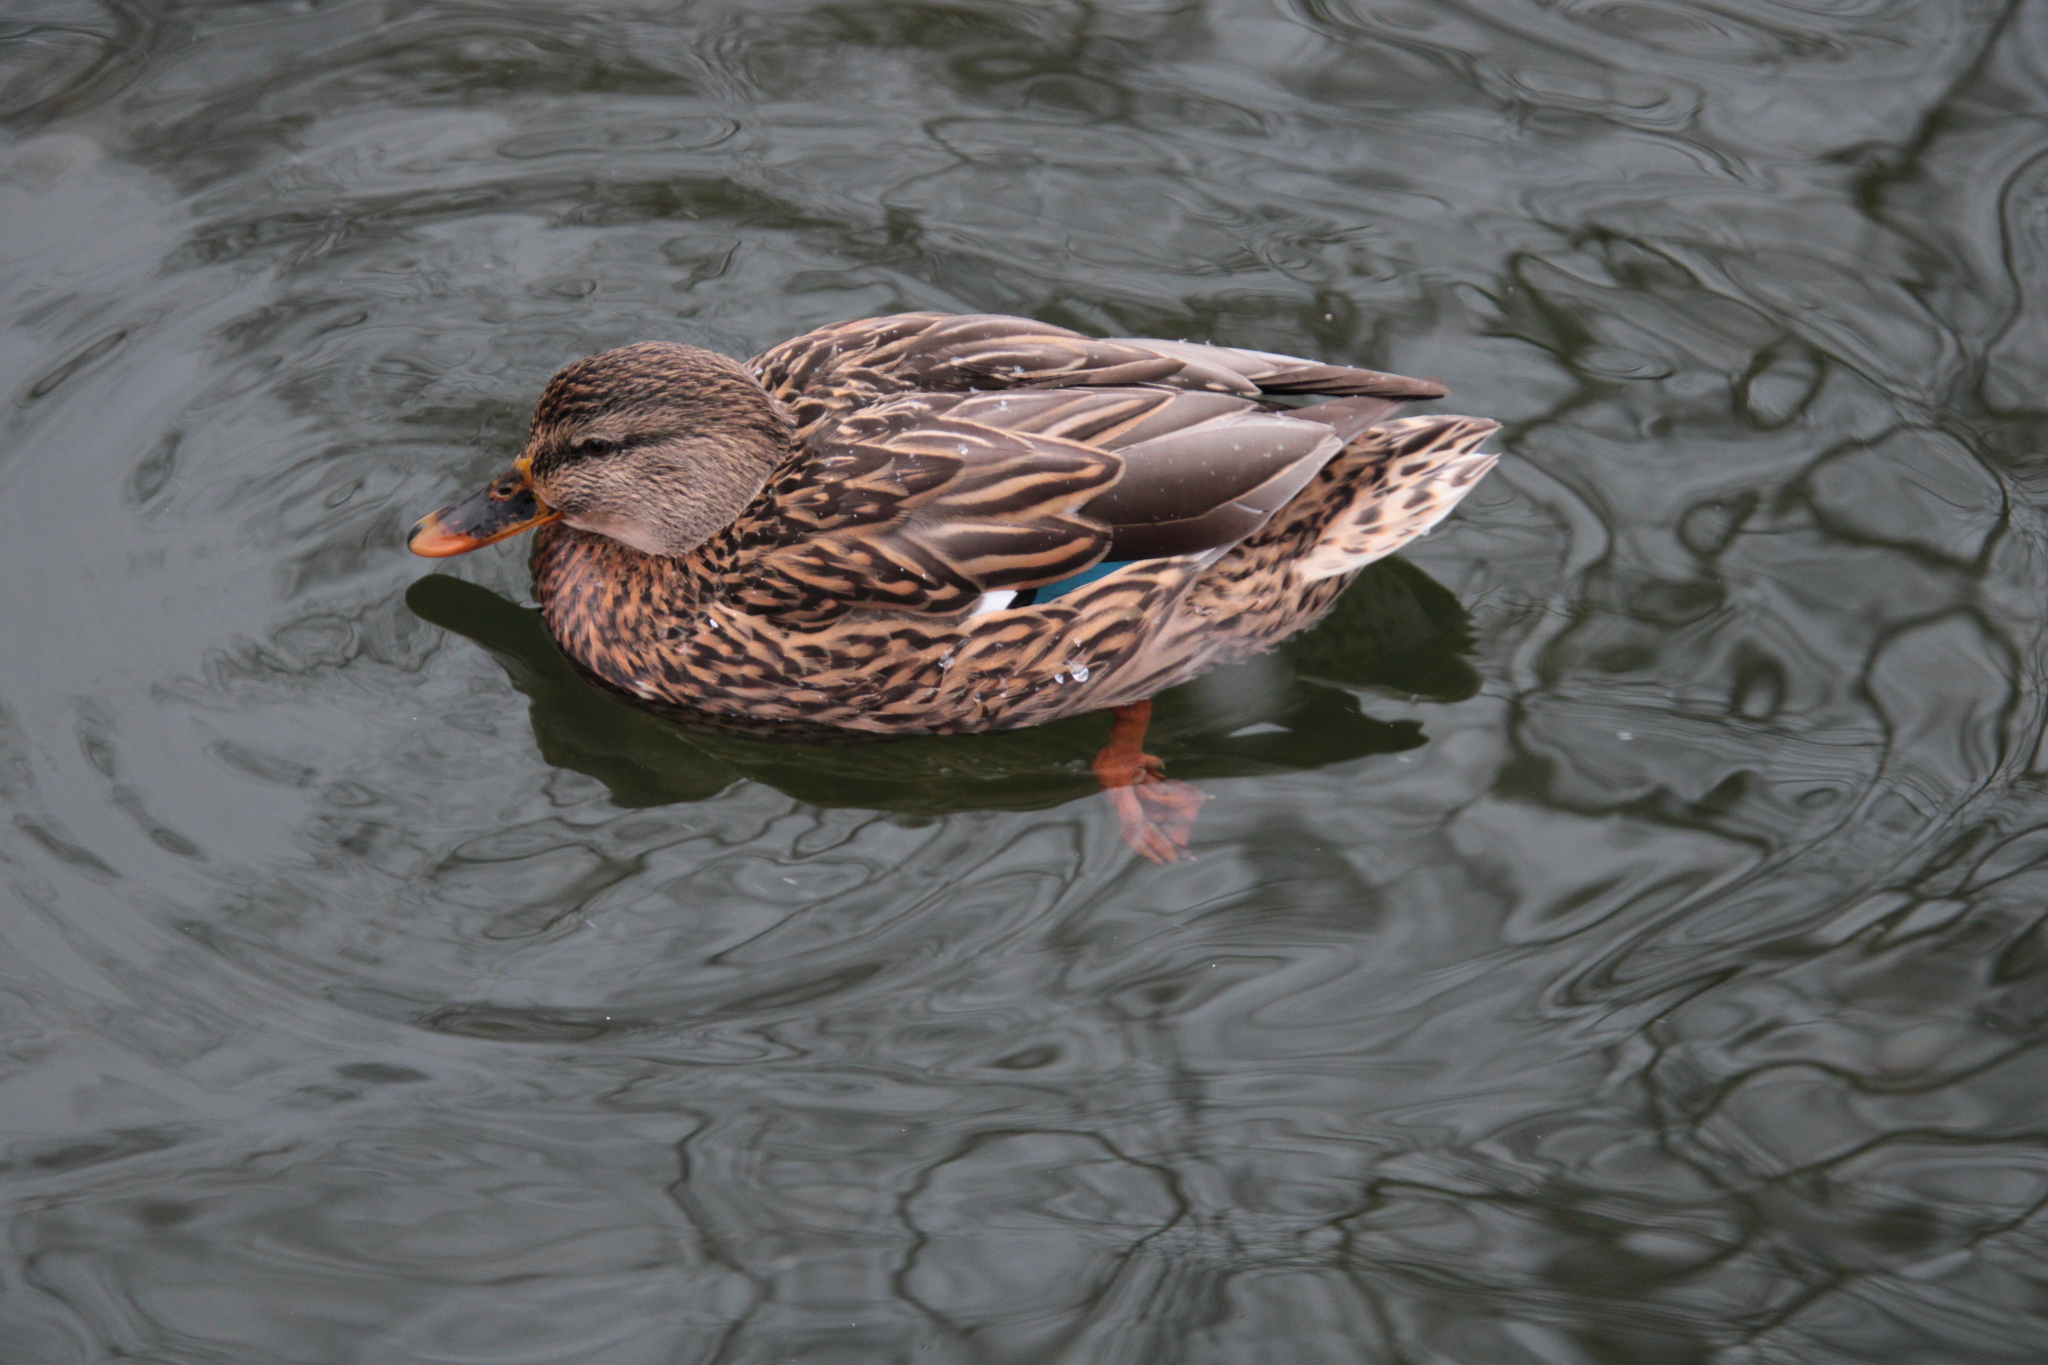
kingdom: Animalia
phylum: Chordata
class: Aves
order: Anseriformes
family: Anatidae
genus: Anas
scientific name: Anas platyrhynchos
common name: Mallard
